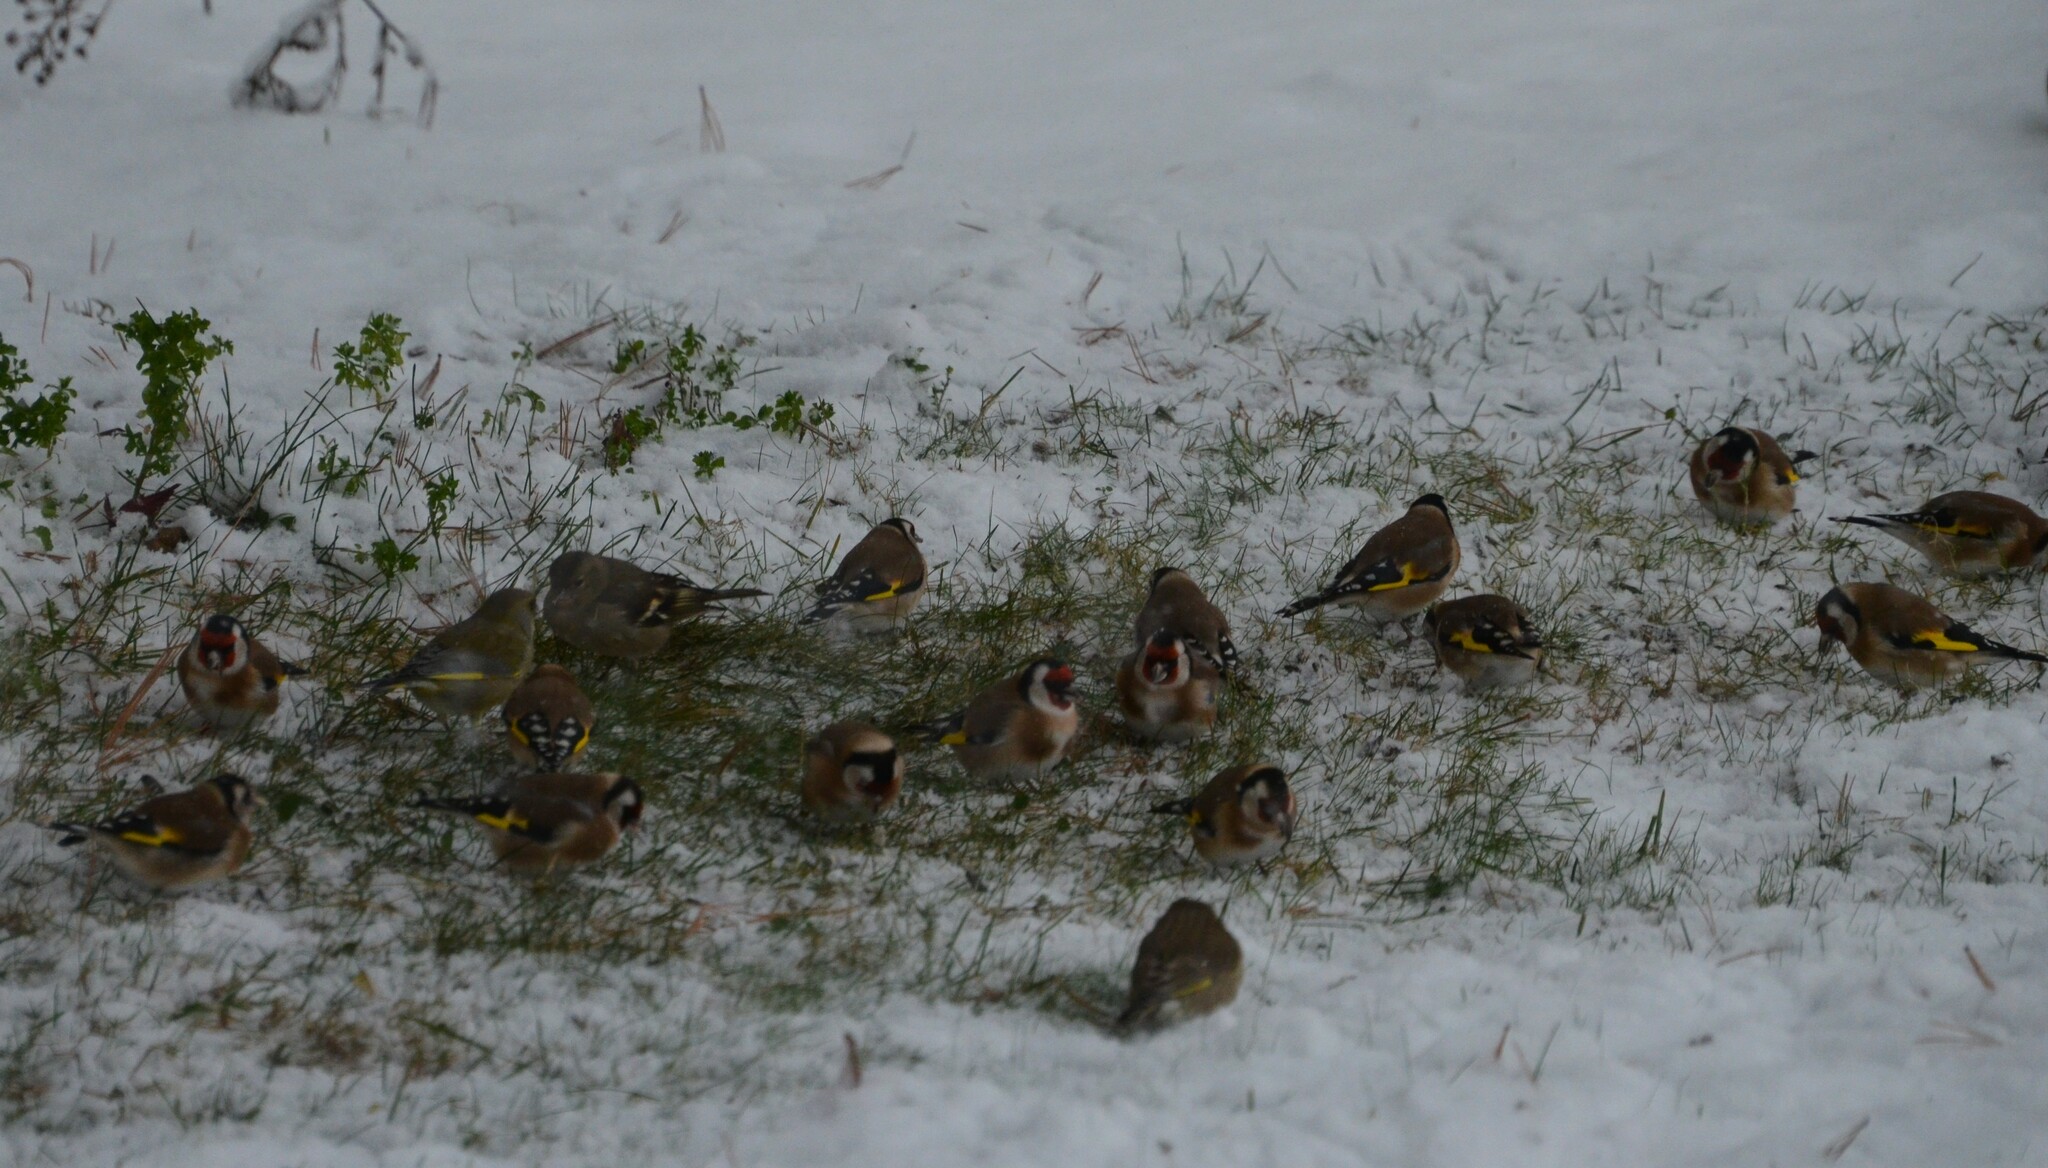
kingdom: Animalia
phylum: Chordata
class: Aves
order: Passeriformes
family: Fringillidae
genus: Carduelis
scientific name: Carduelis carduelis
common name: European goldfinch
